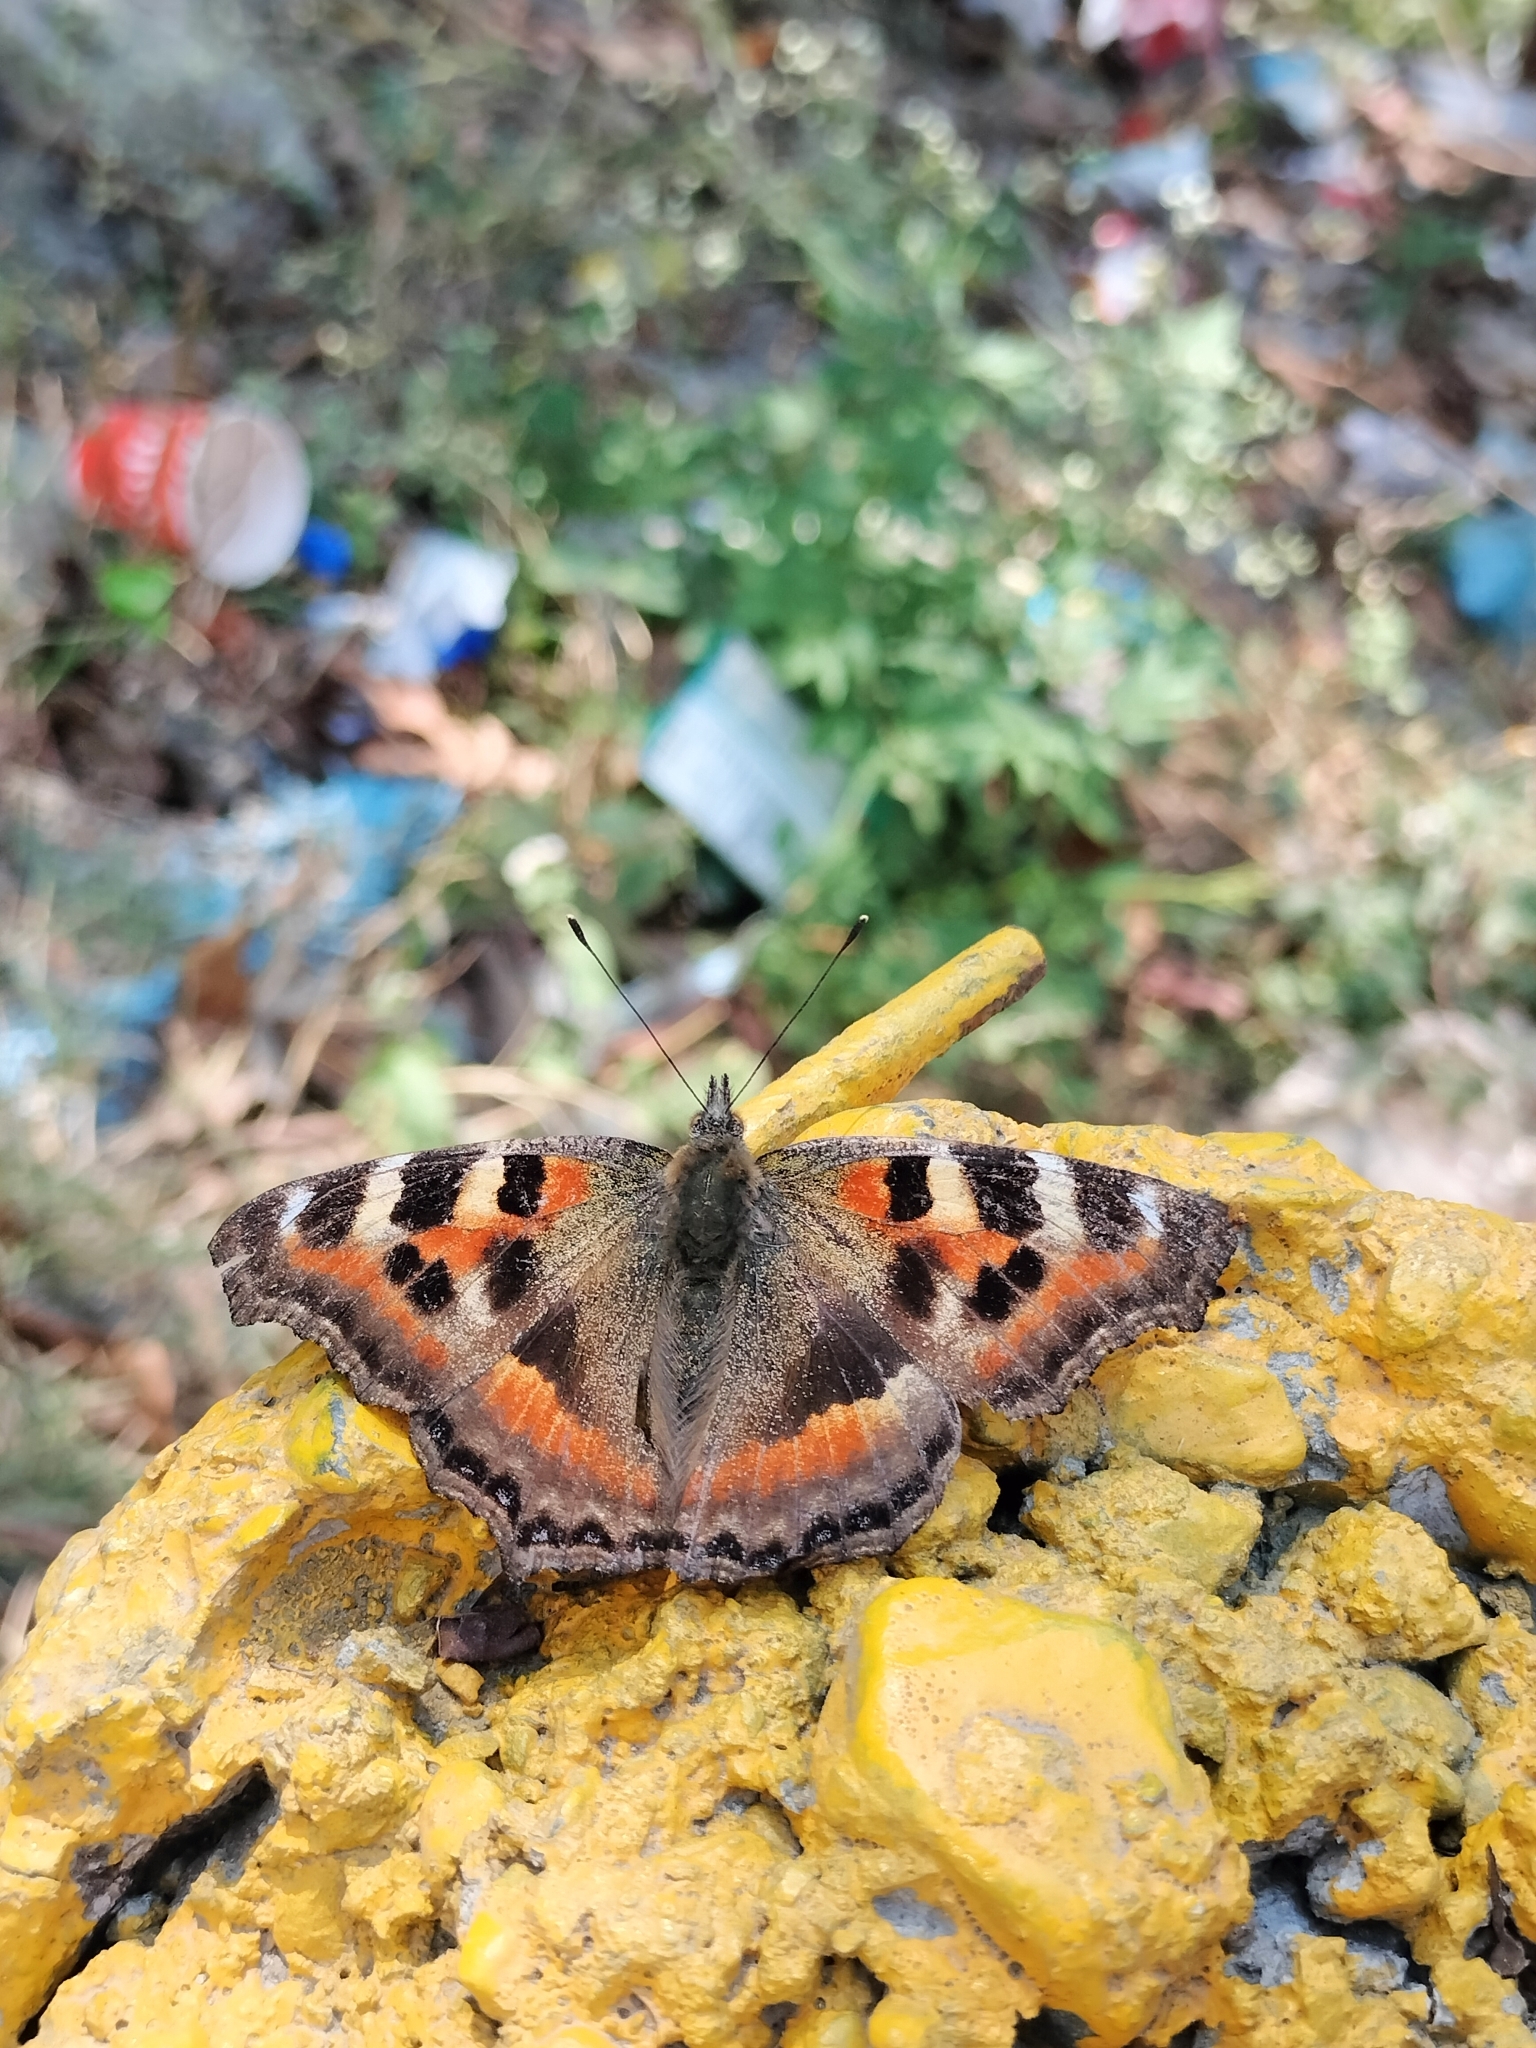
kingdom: Animalia
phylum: Arthropoda
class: Insecta
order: Lepidoptera
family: Nymphalidae
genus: Aglais
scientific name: Aglais caschmirensis
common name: Indian tortoiseshell
